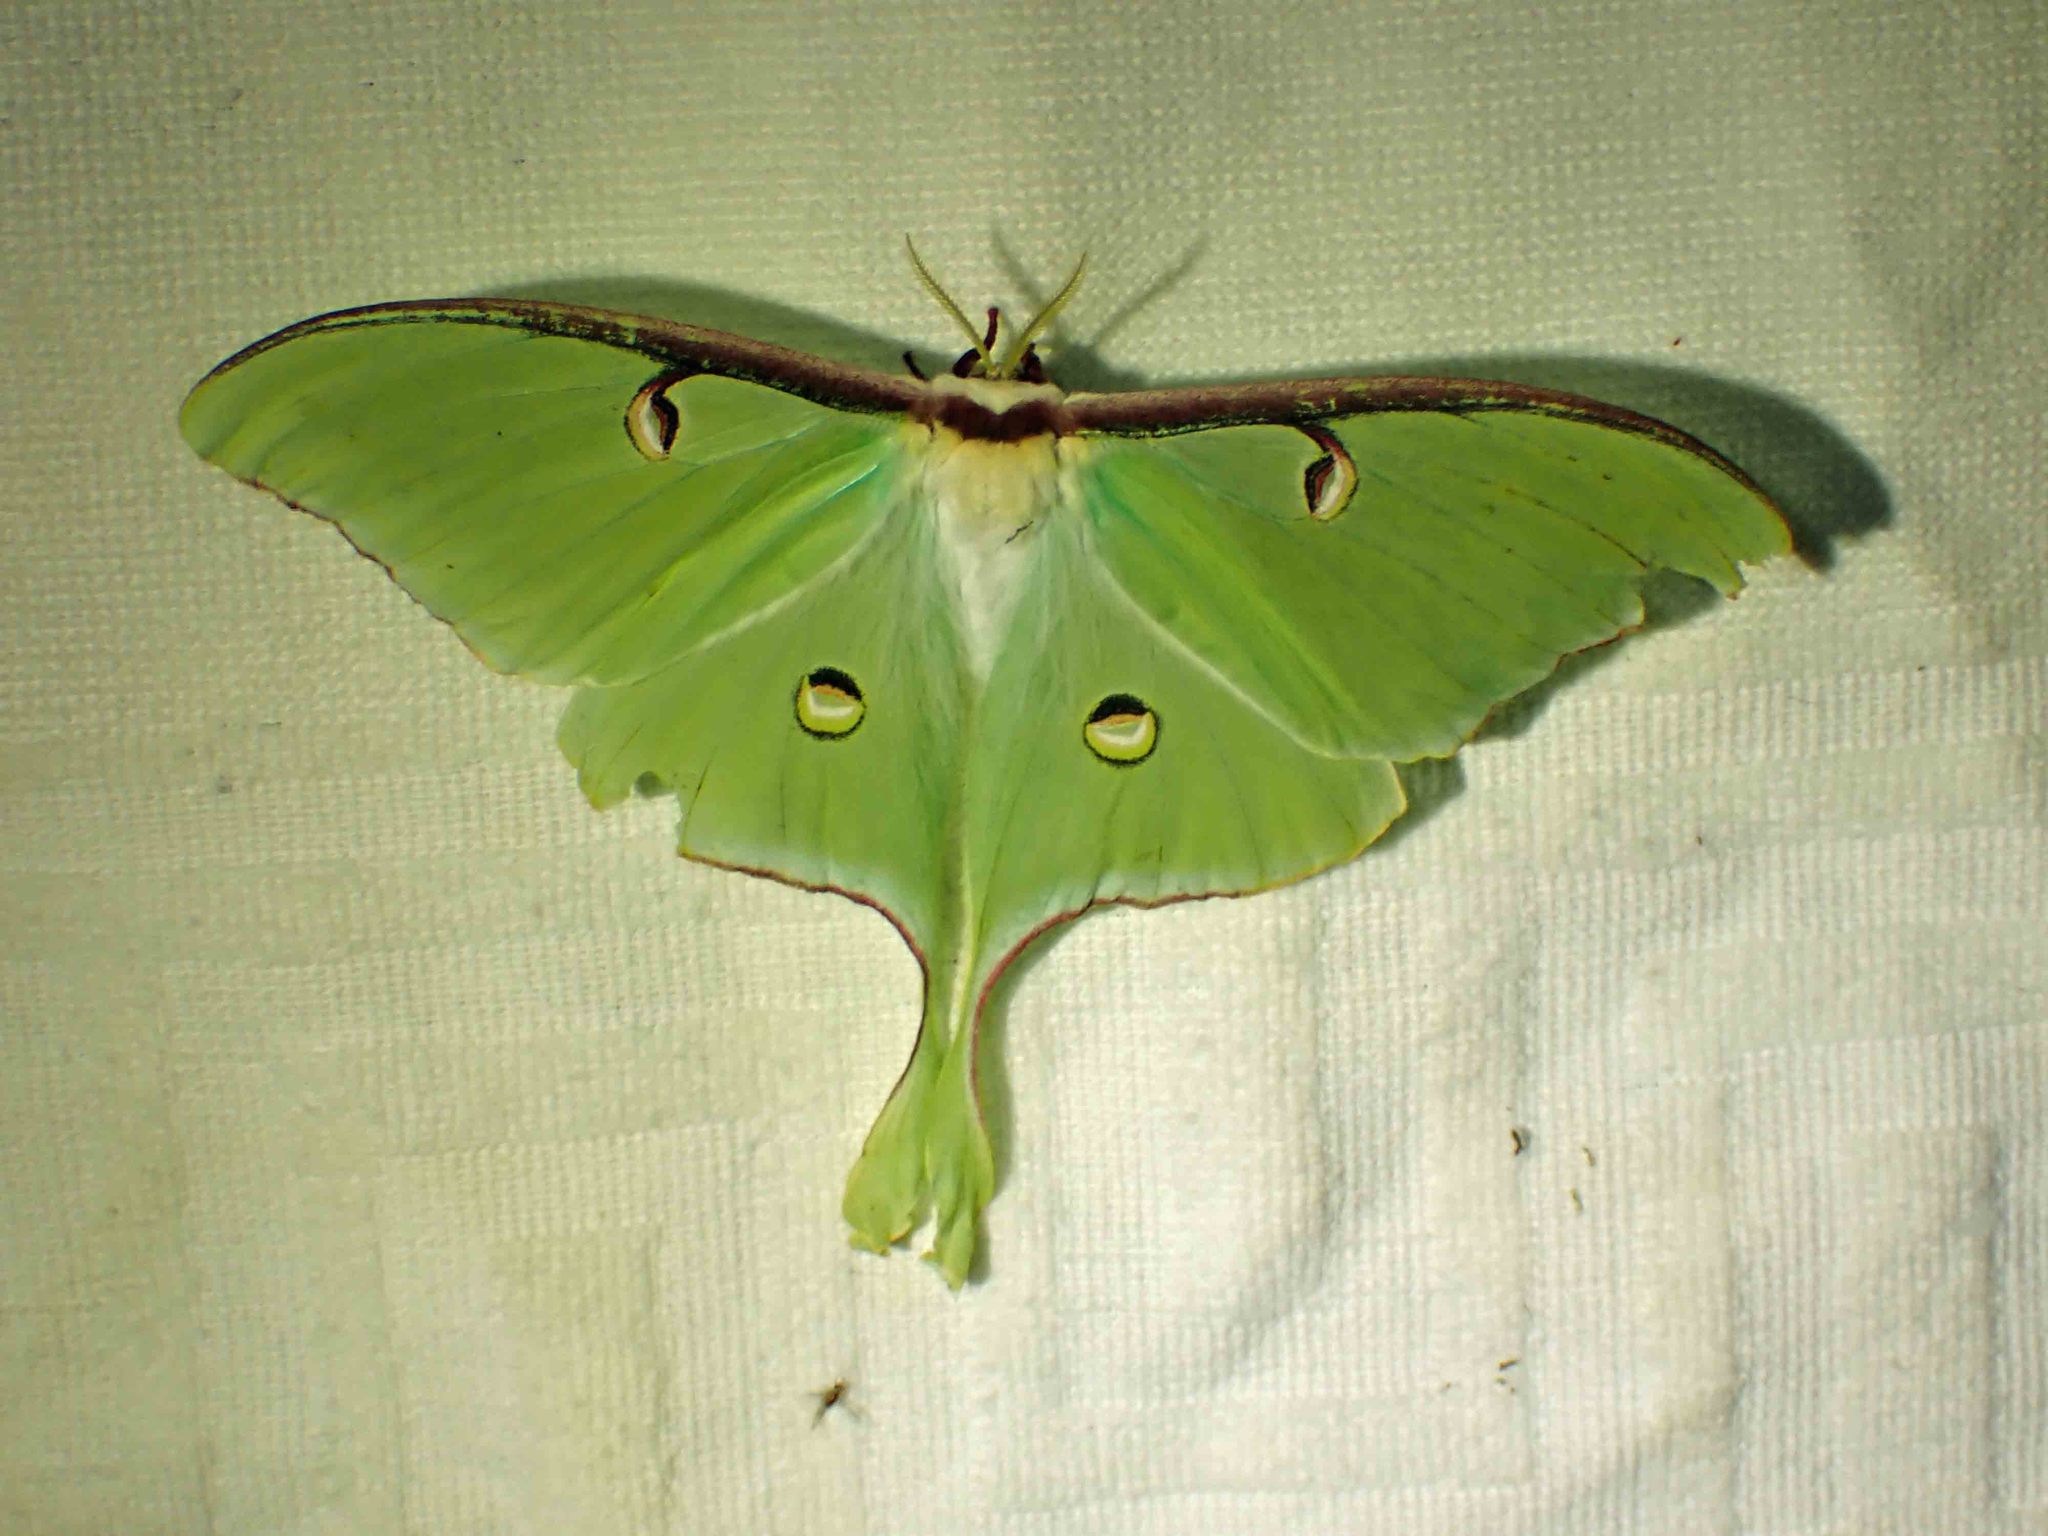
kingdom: Animalia
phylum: Arthropoda
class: Insecta
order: Lepidoptera
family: Saturniidae
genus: Actias
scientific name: Actias luna
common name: Luna moth
